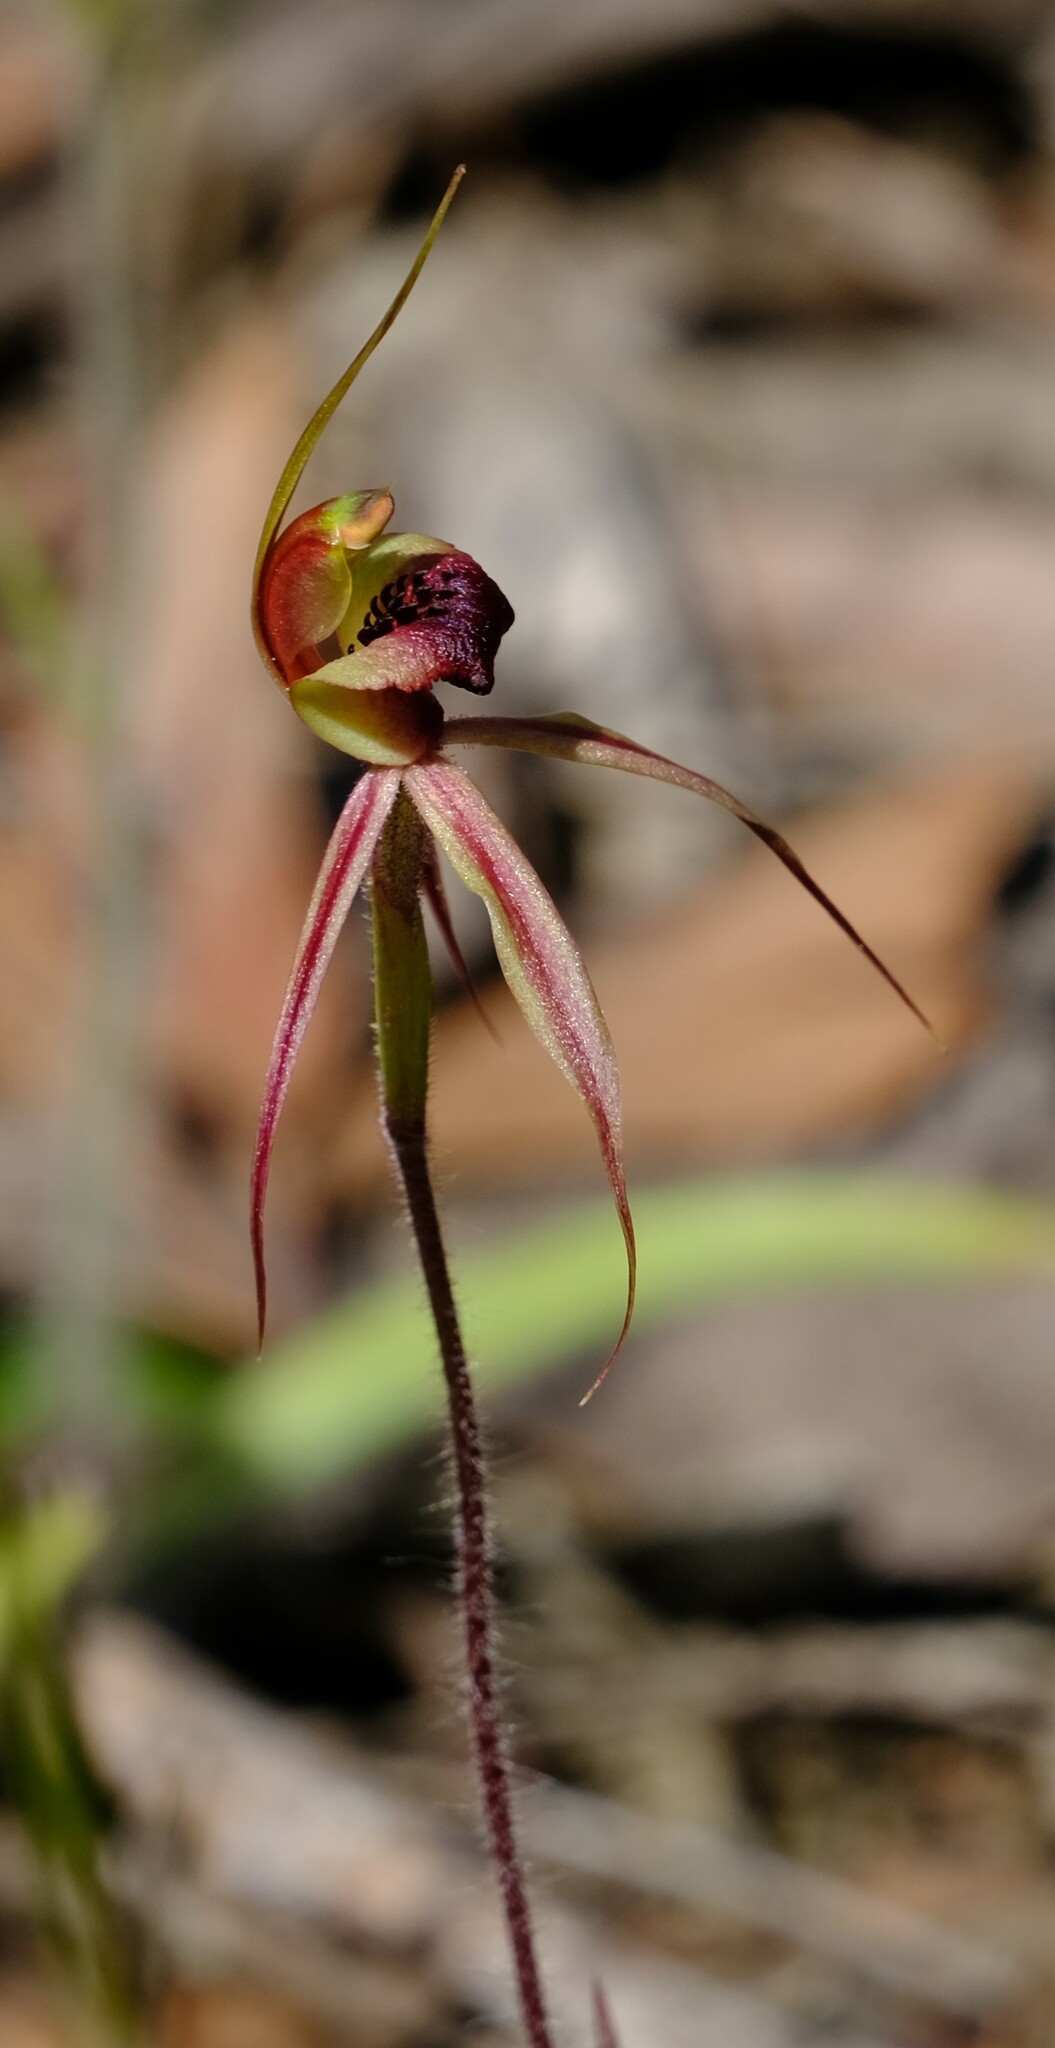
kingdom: Plantae
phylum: Tracheophyta
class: Liliopsida
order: Asparagales
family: Orchidaceae
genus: Caladenia
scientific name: Caladenia clavigera
